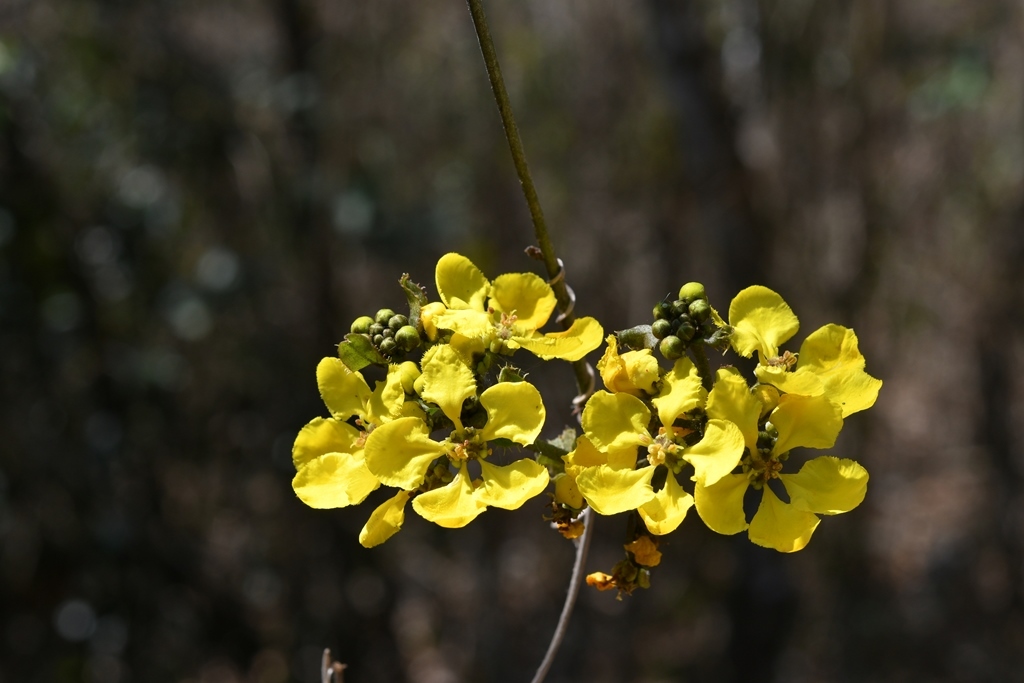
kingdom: Plantae
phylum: Tracheophyta
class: Magnoliopsida
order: Malpighiales
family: Malpighiaceae
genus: Gaudichaudia
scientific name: Gaudichaudia hexandra
